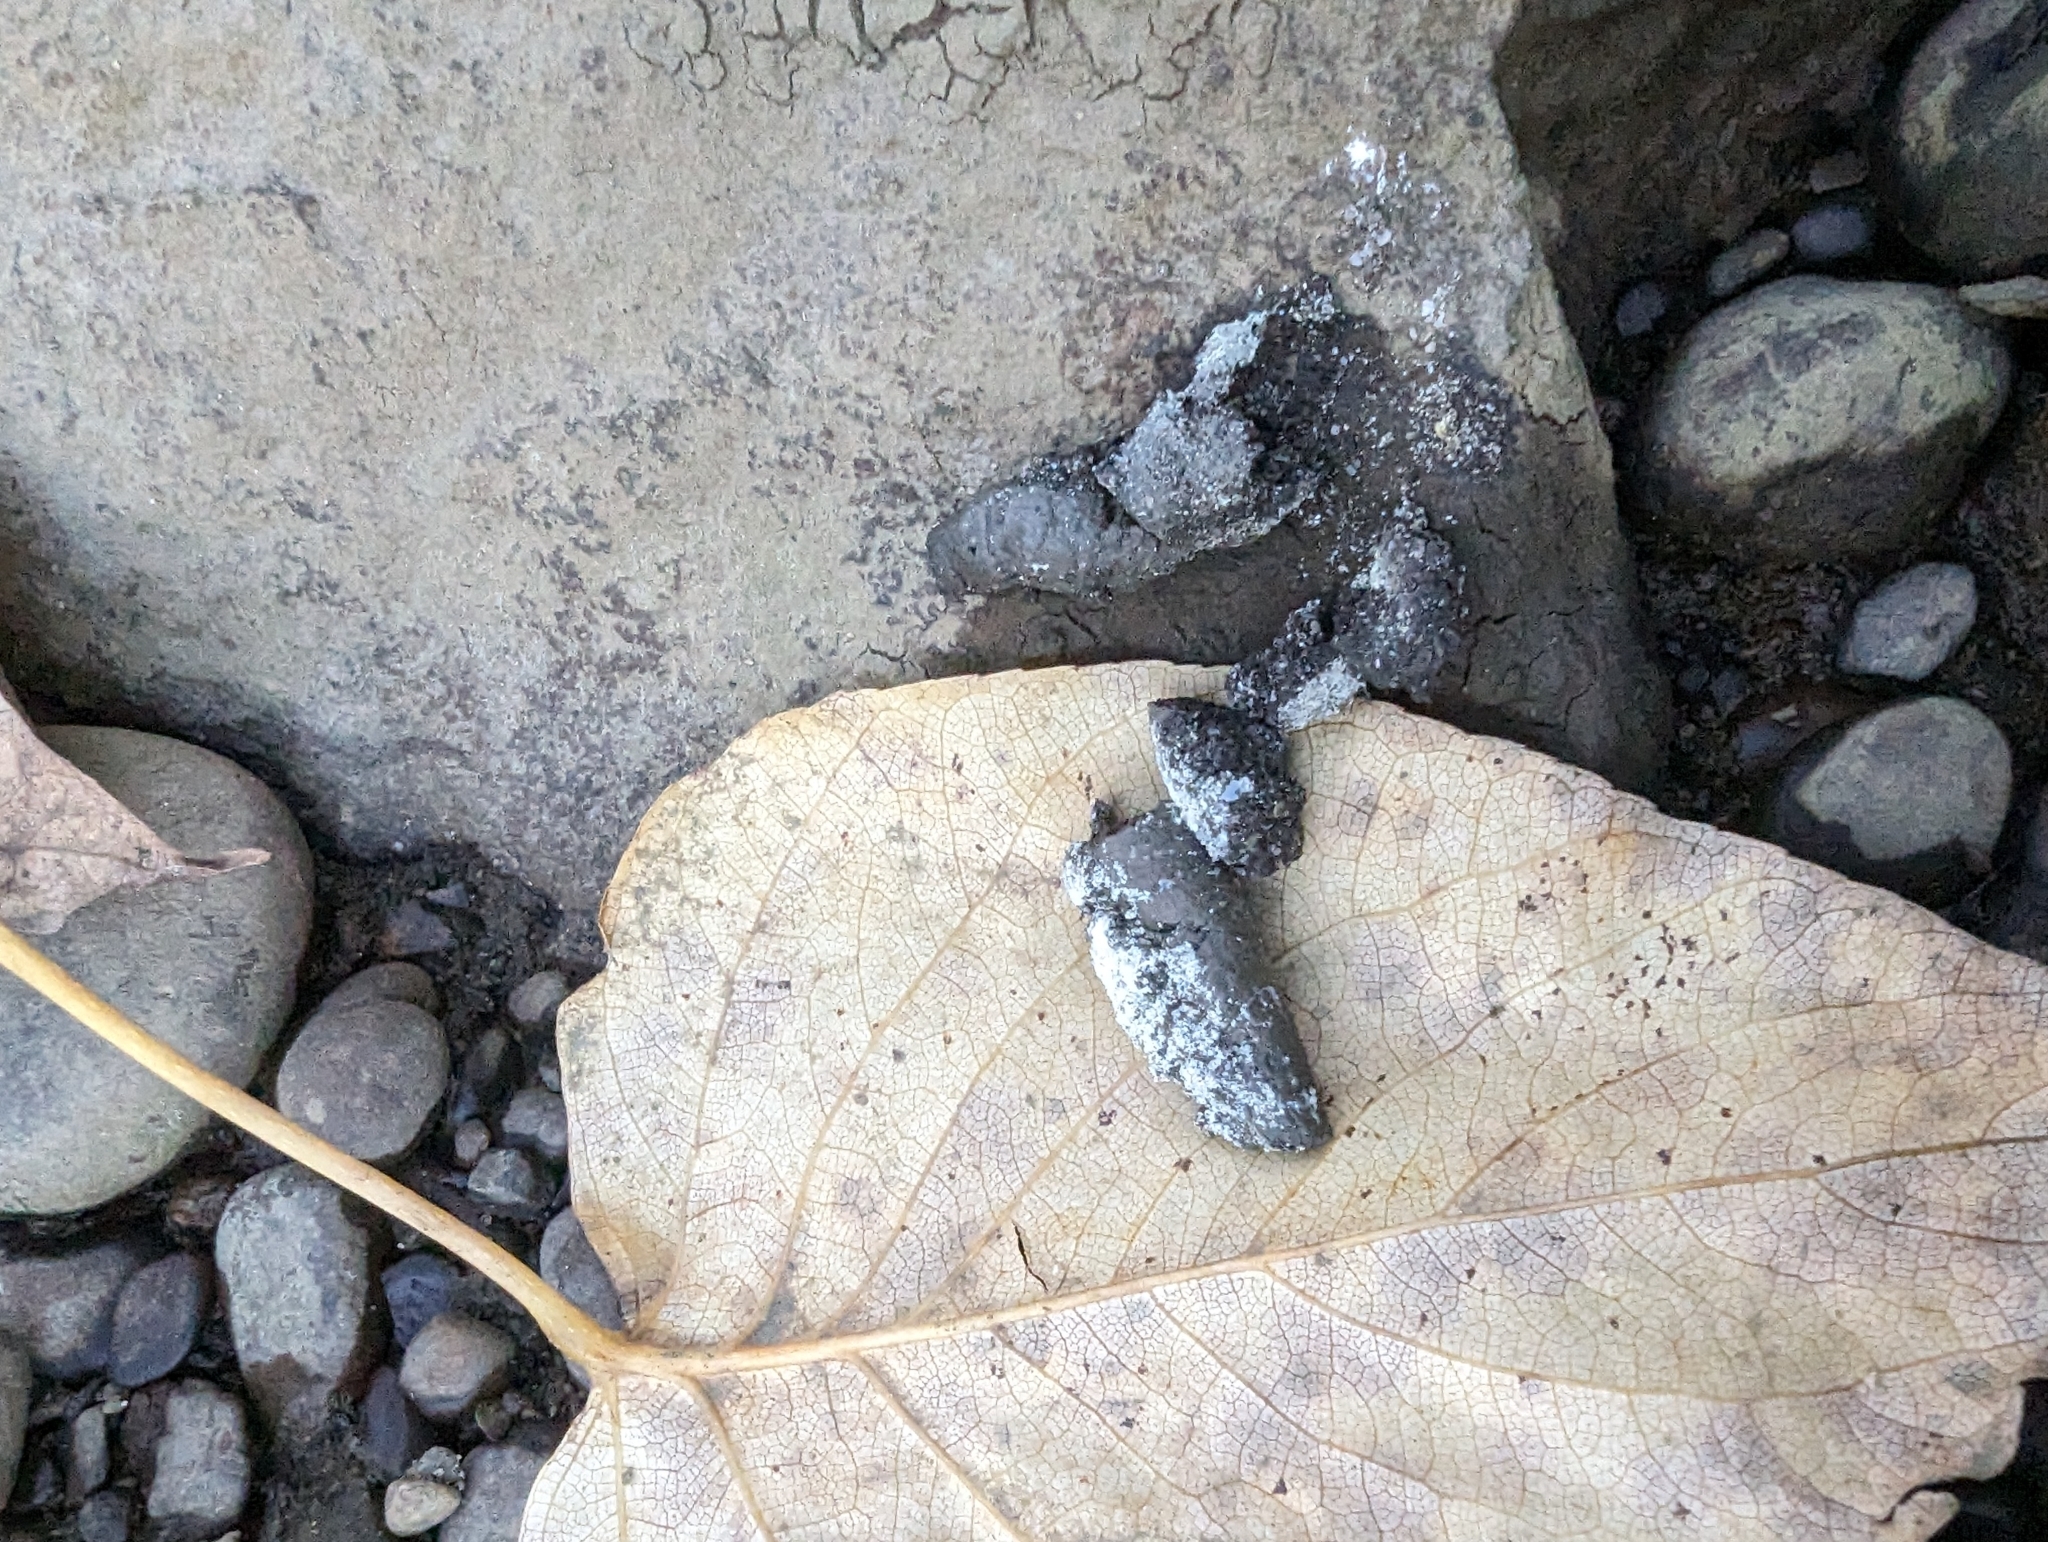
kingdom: Animalia
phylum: Chordata
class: Mammalia
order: Carnivora
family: Procyonidae
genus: Procyon
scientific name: Procyon lotor
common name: Raccoon
